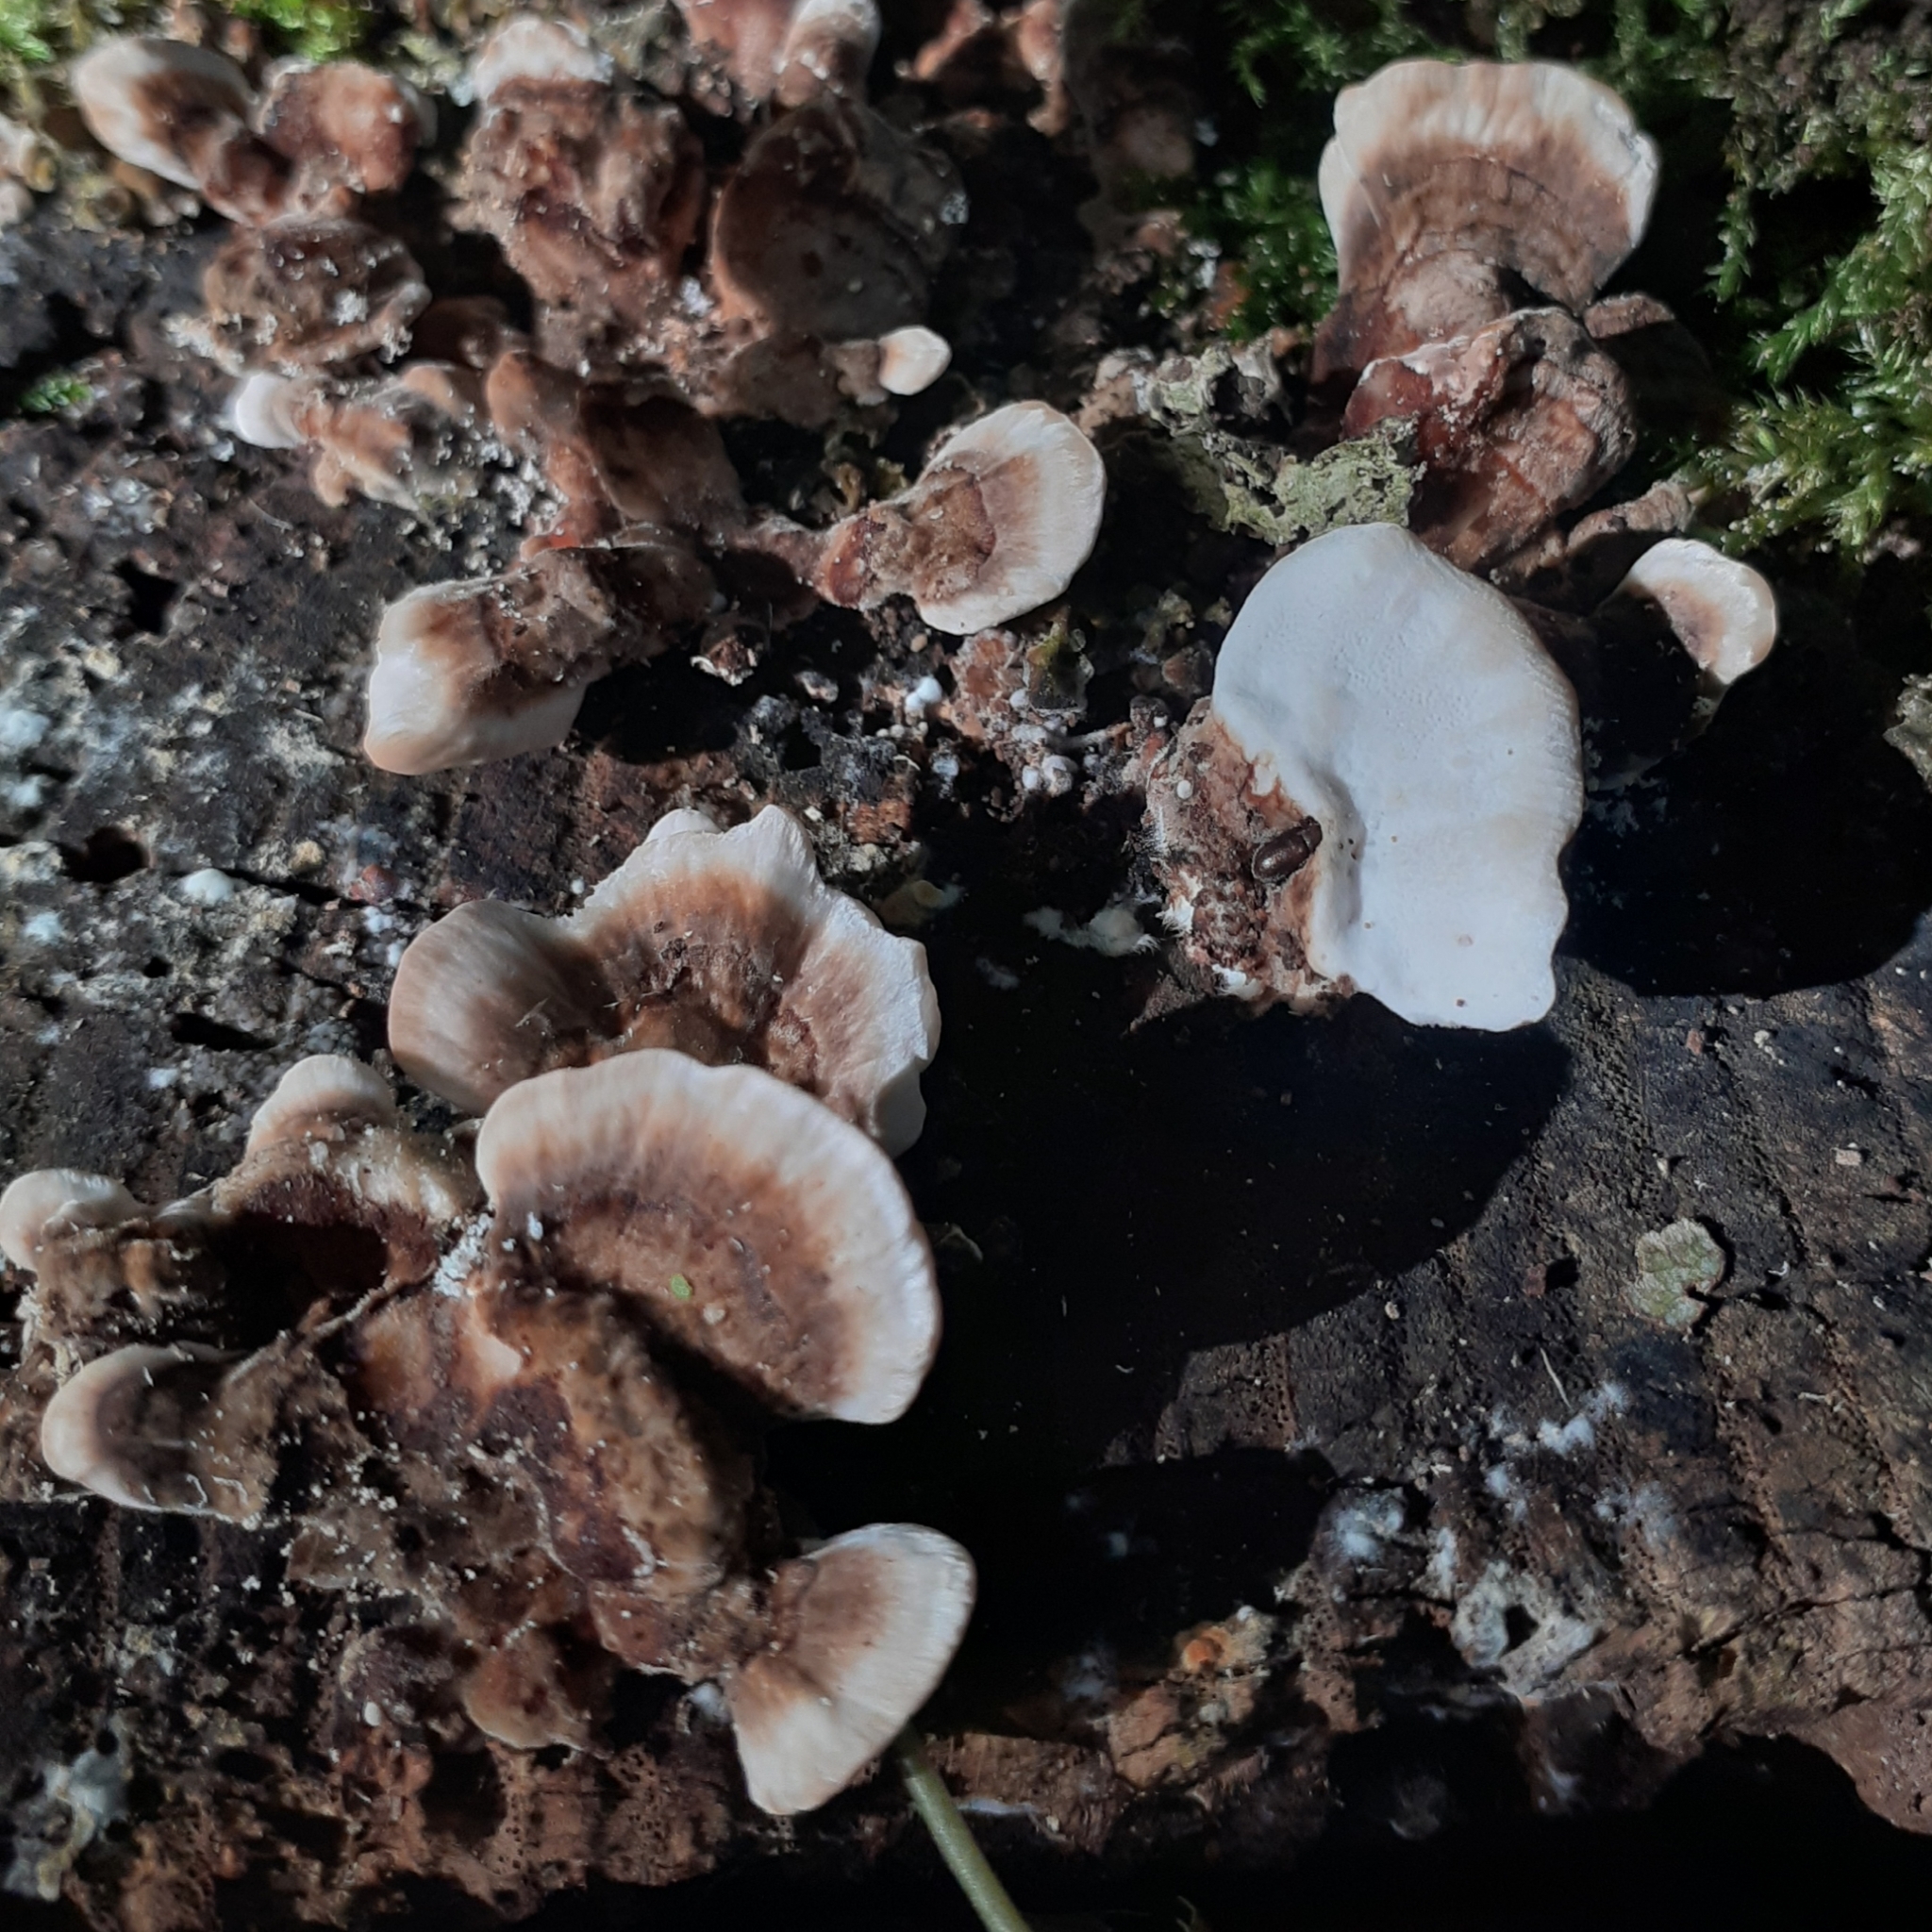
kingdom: Fungi
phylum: Basidiomycota
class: Agaricomycetes
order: Polyporales
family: Polyporaceae
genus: Trametes
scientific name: Trametes versicolor
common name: Turkeytail
